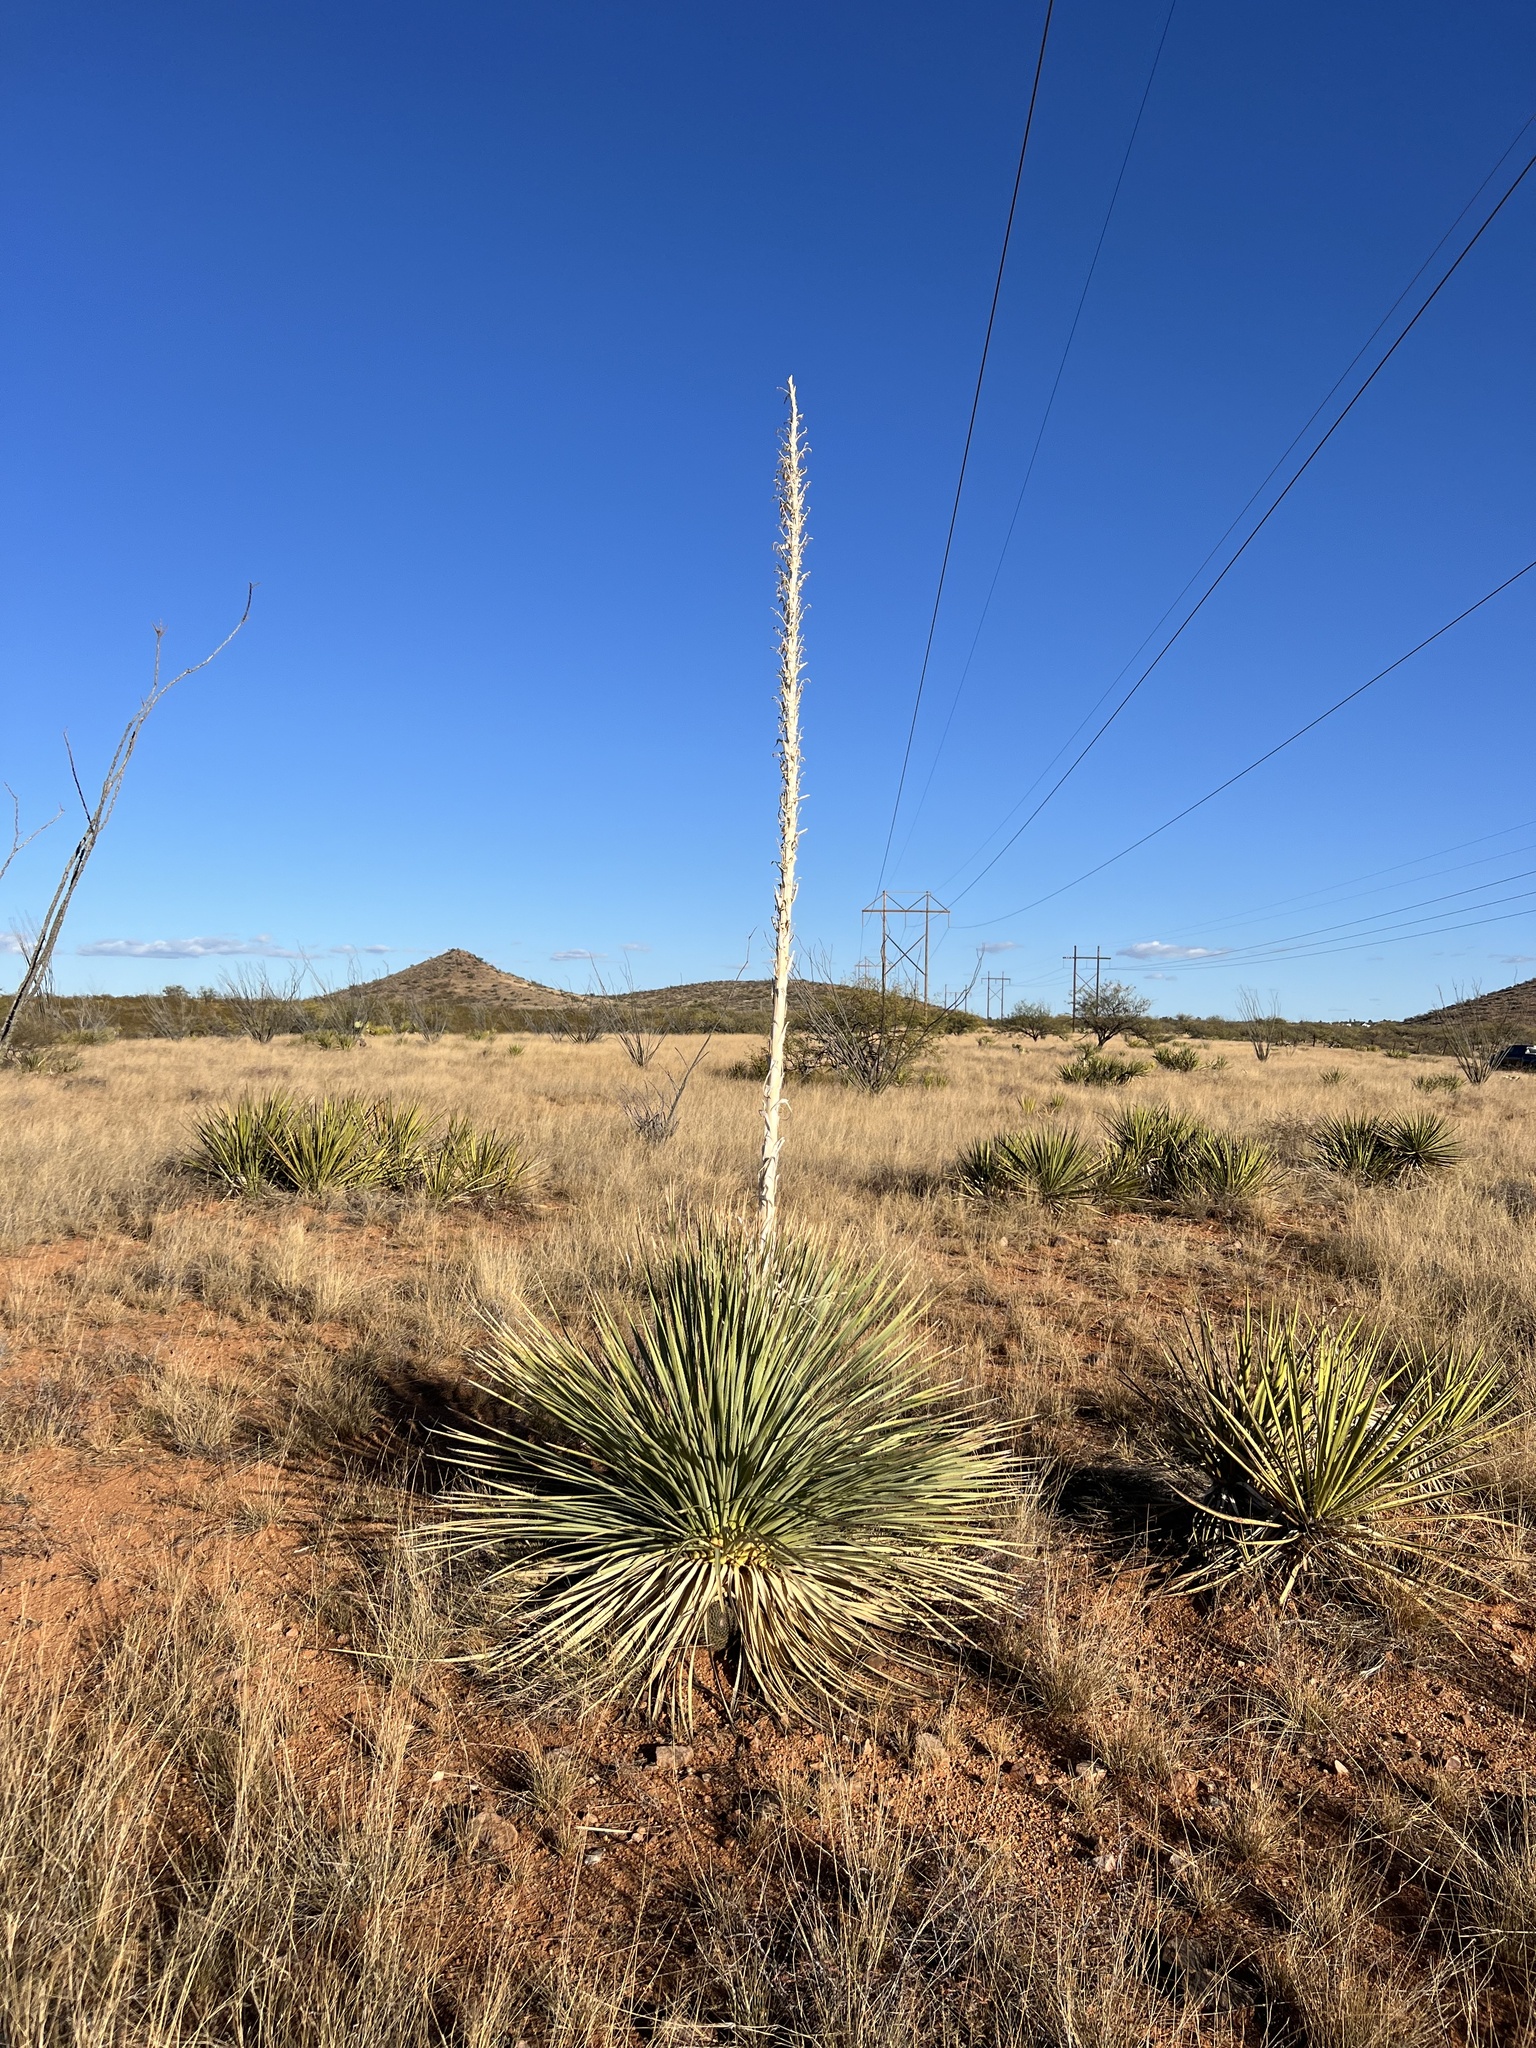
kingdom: Plantae
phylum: Tracheophyta
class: Liliopsida
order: Asparagales
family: Asparagaceae
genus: Dasylirion
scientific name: Dasylirion wheeleri
